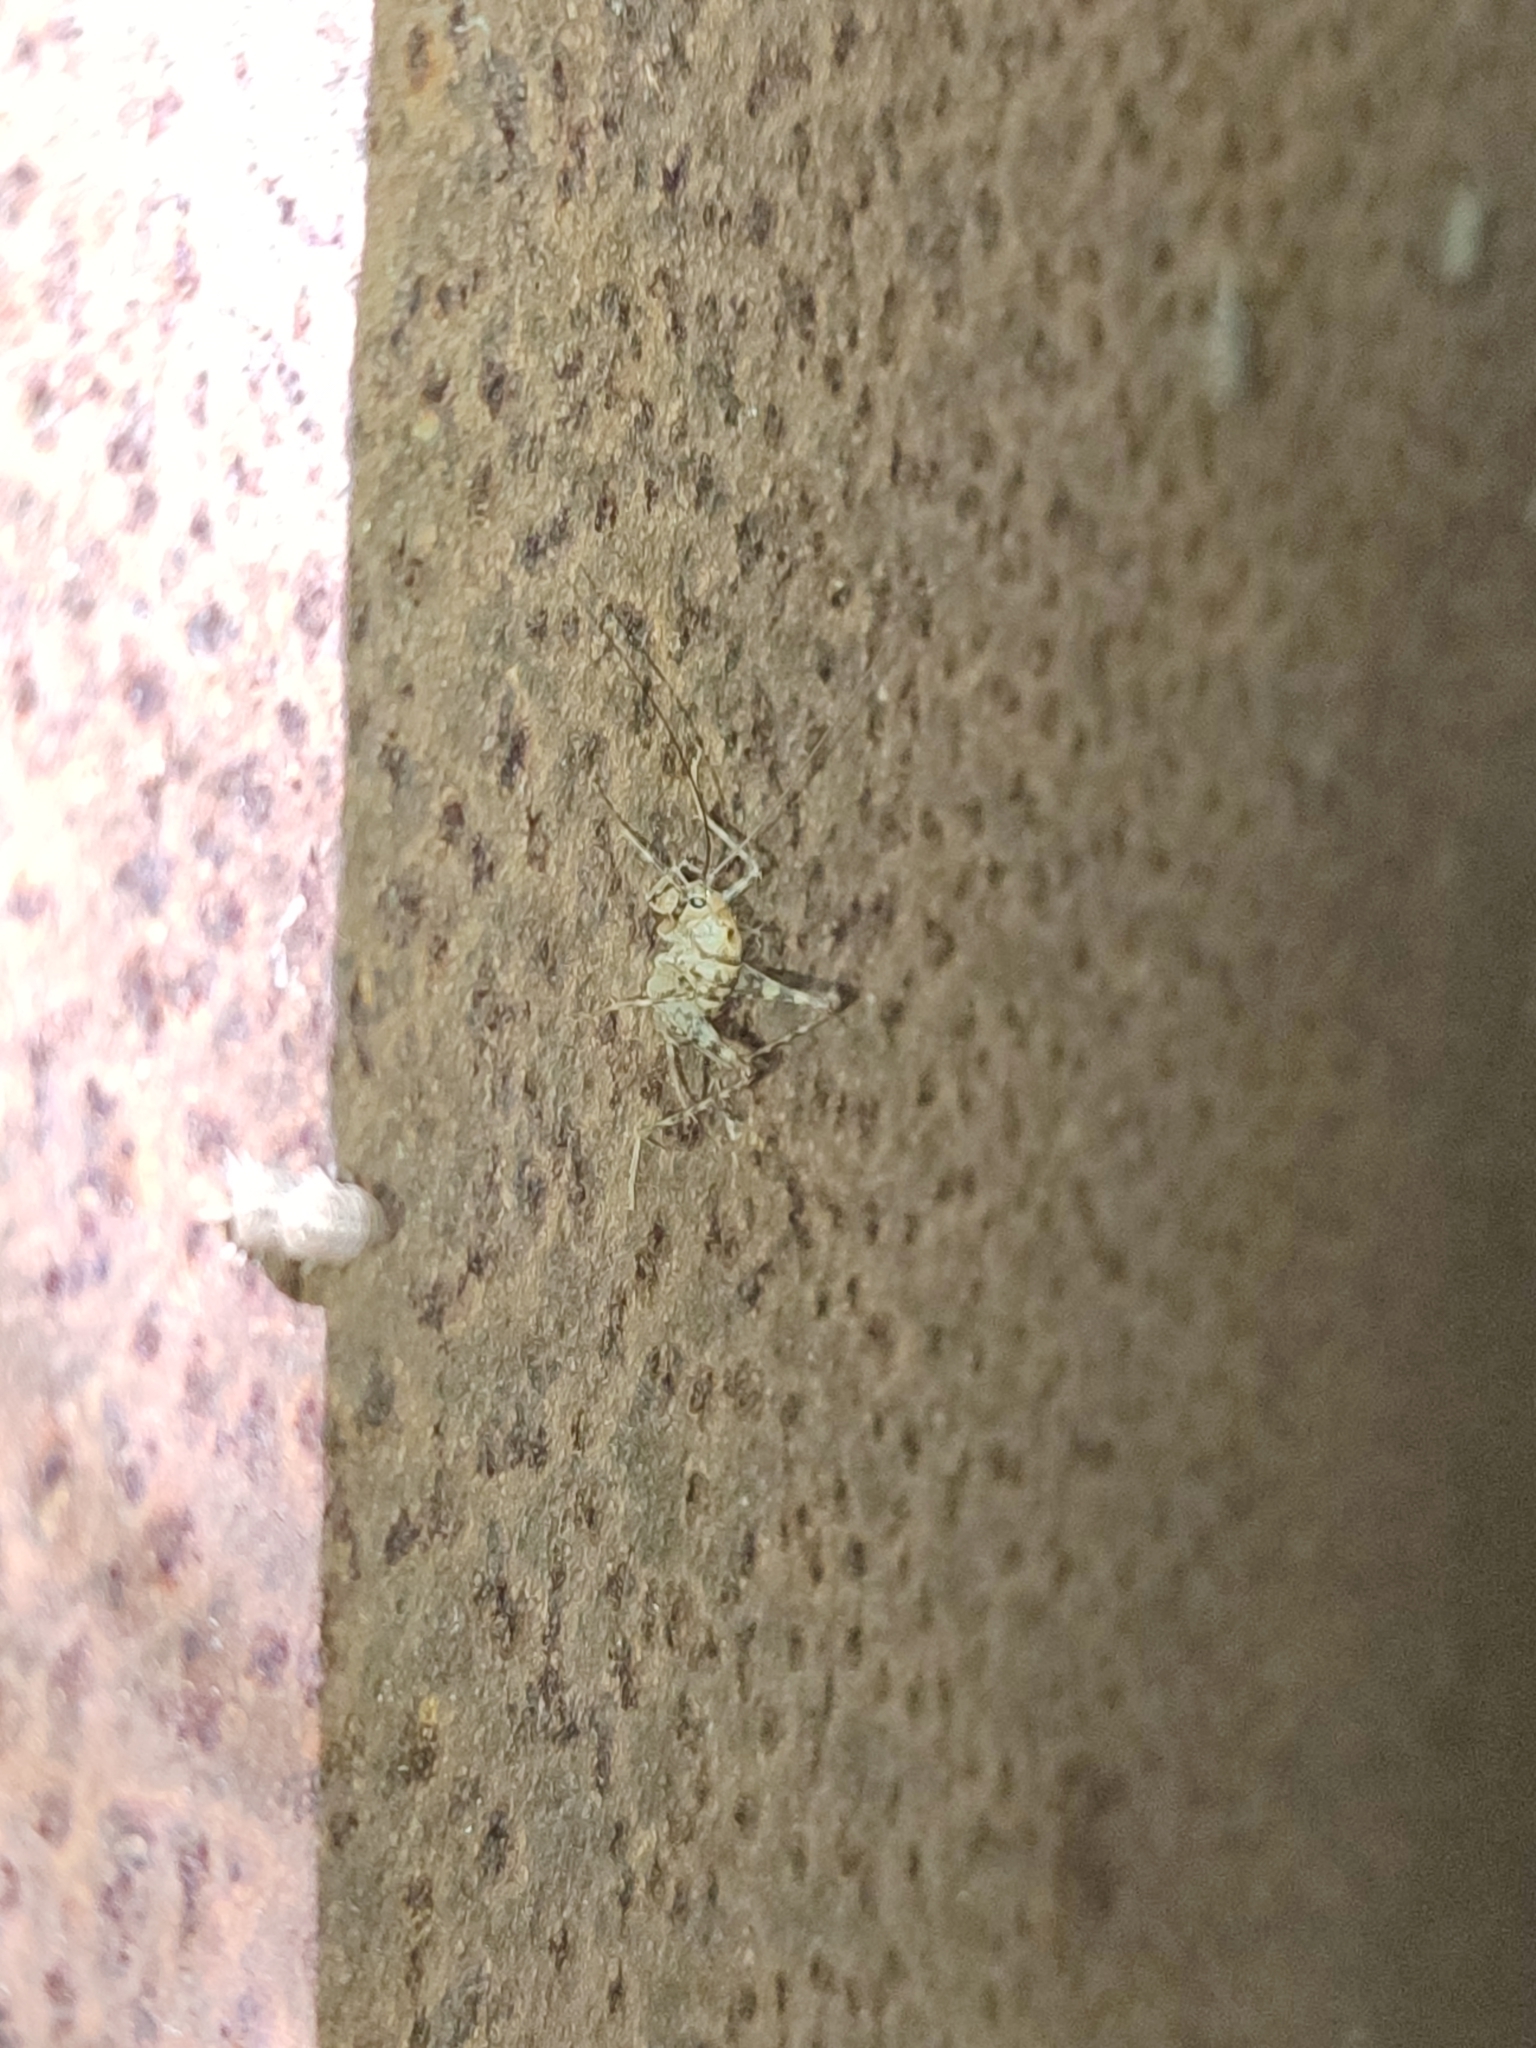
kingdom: Animalia
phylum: Arthropoda
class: Insecta
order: Orthoptera
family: Rhaphidophoridae
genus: Tachycines
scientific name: Tachycines asynamorus
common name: Greenhouse camel cricket
